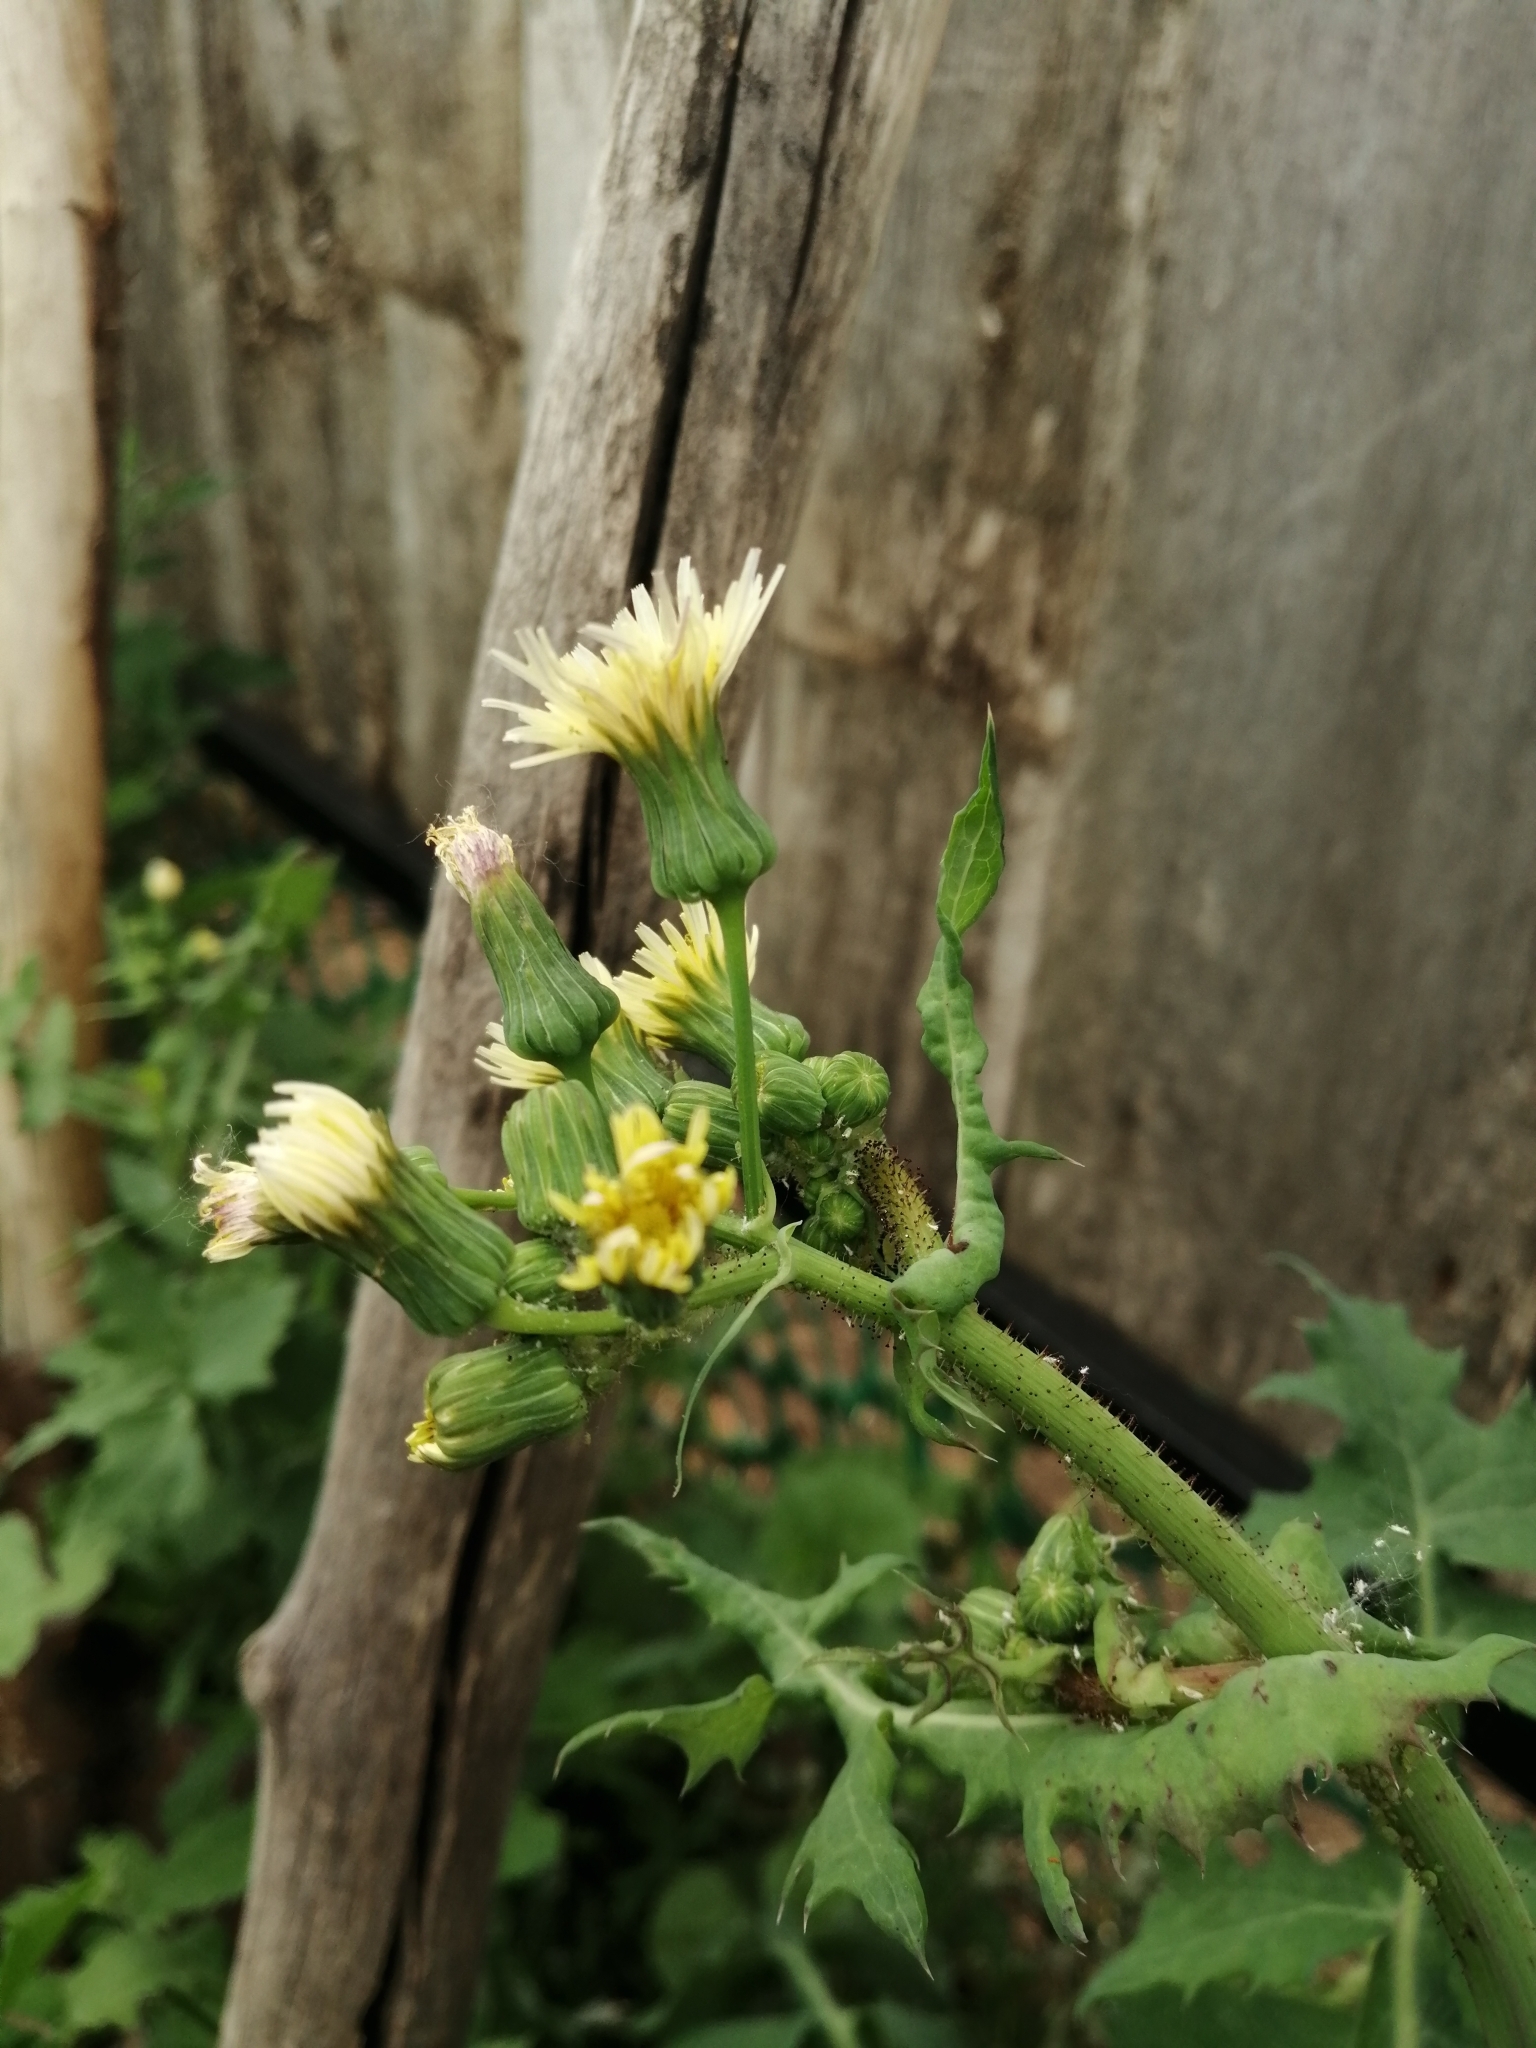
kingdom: Plantae
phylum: Tracheophyta
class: Magnoliopsida
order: Asterales
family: Asteraceae
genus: Sonchus
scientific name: Sonchus oleraceus
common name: Common sowthistle
